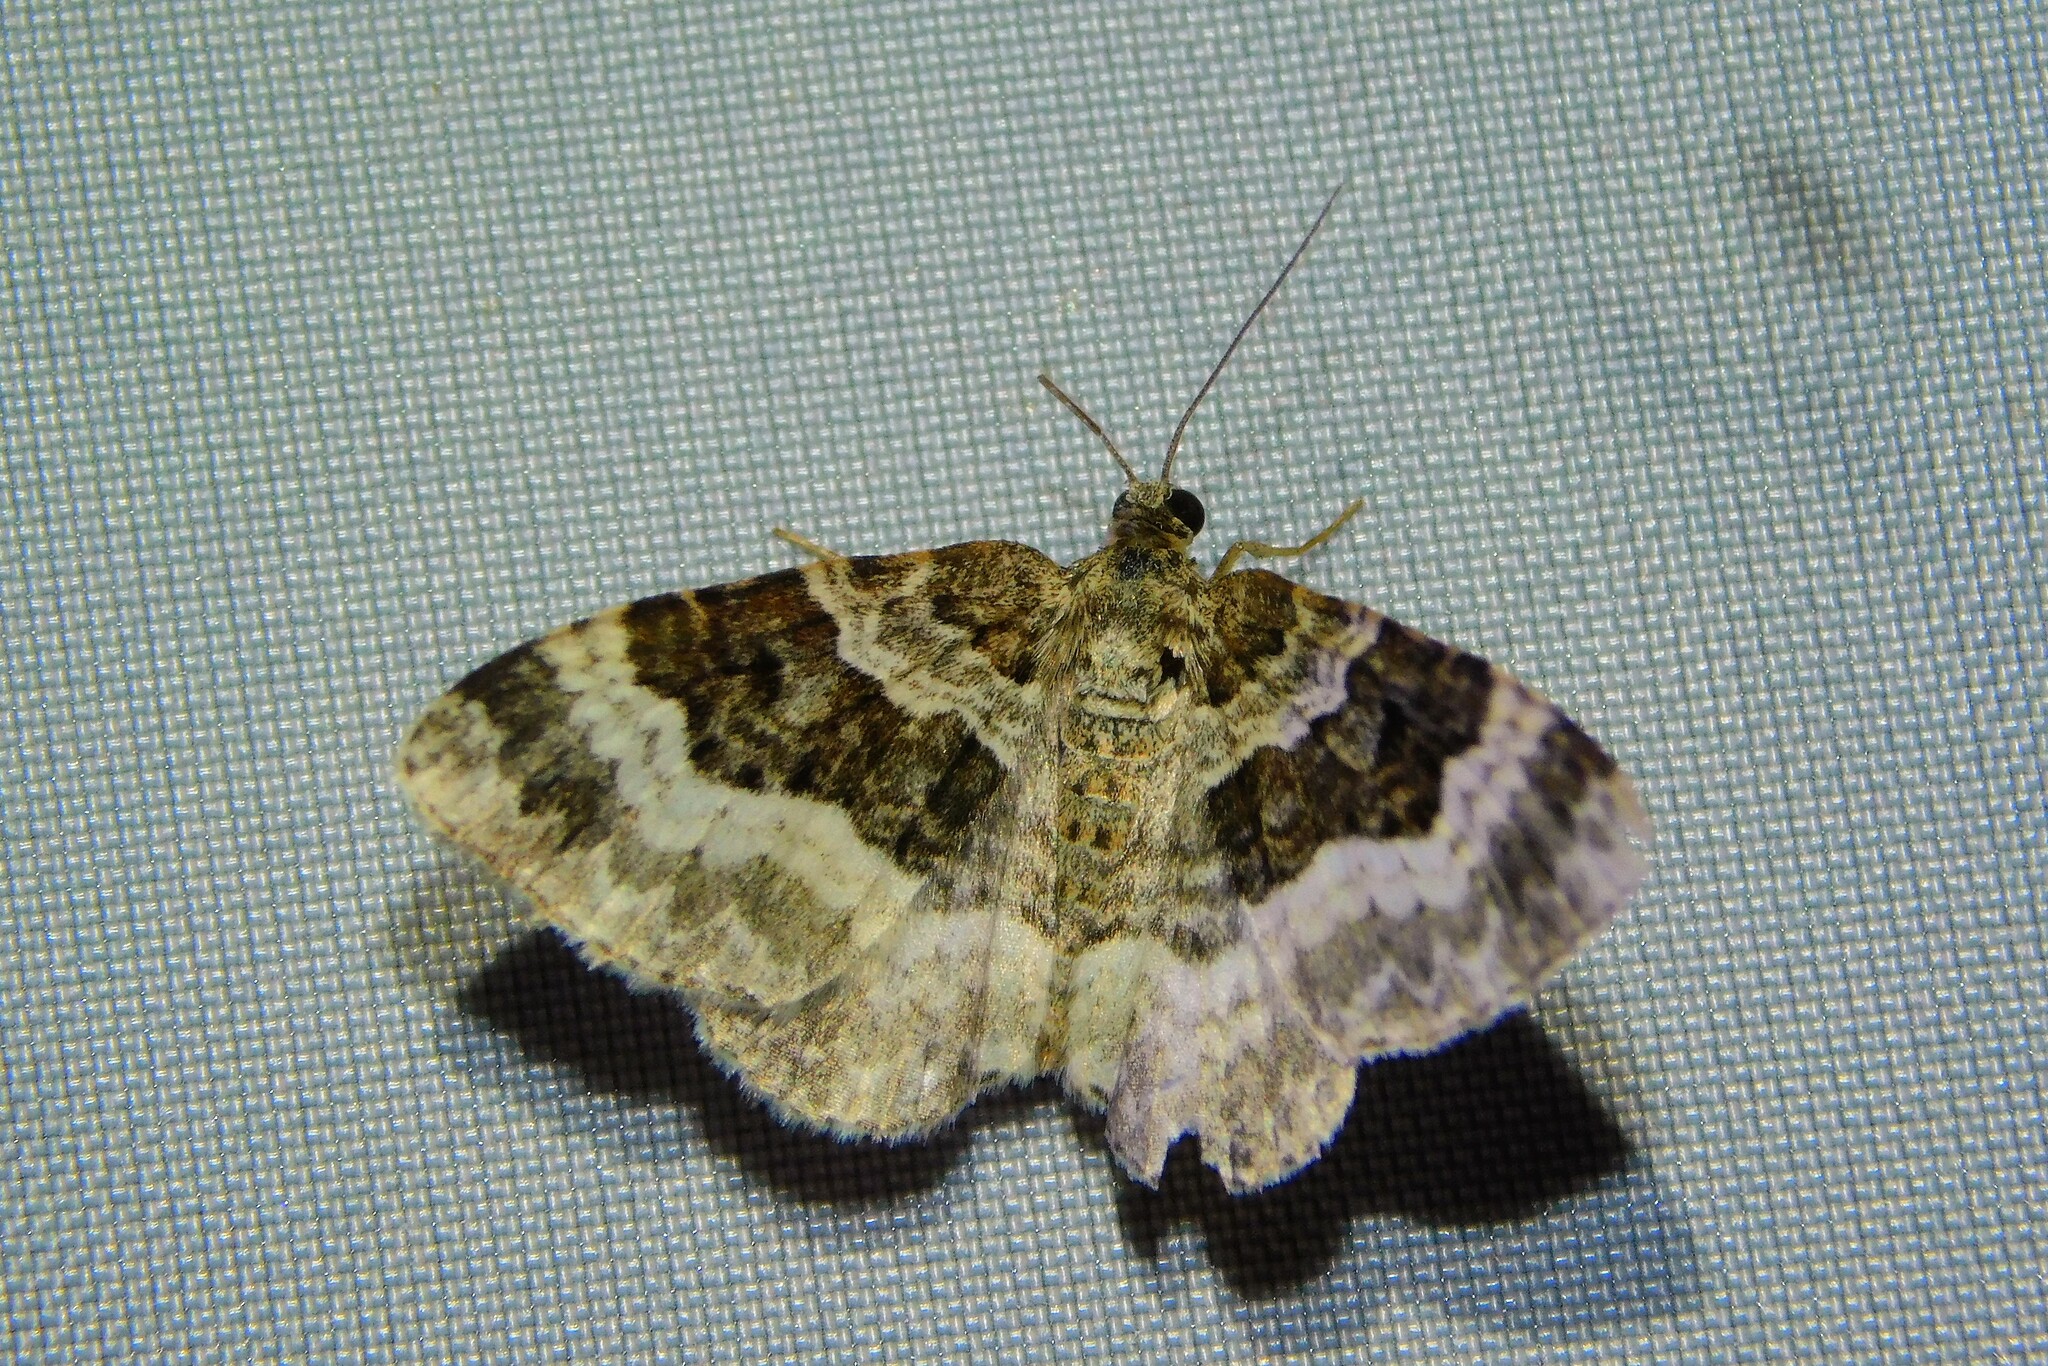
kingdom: Animalia
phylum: Arthropoda
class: Insecta
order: Lepidoptera
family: Geometridae
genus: Epirrhoe
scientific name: Epirrhoe alternata
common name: Common carpet
